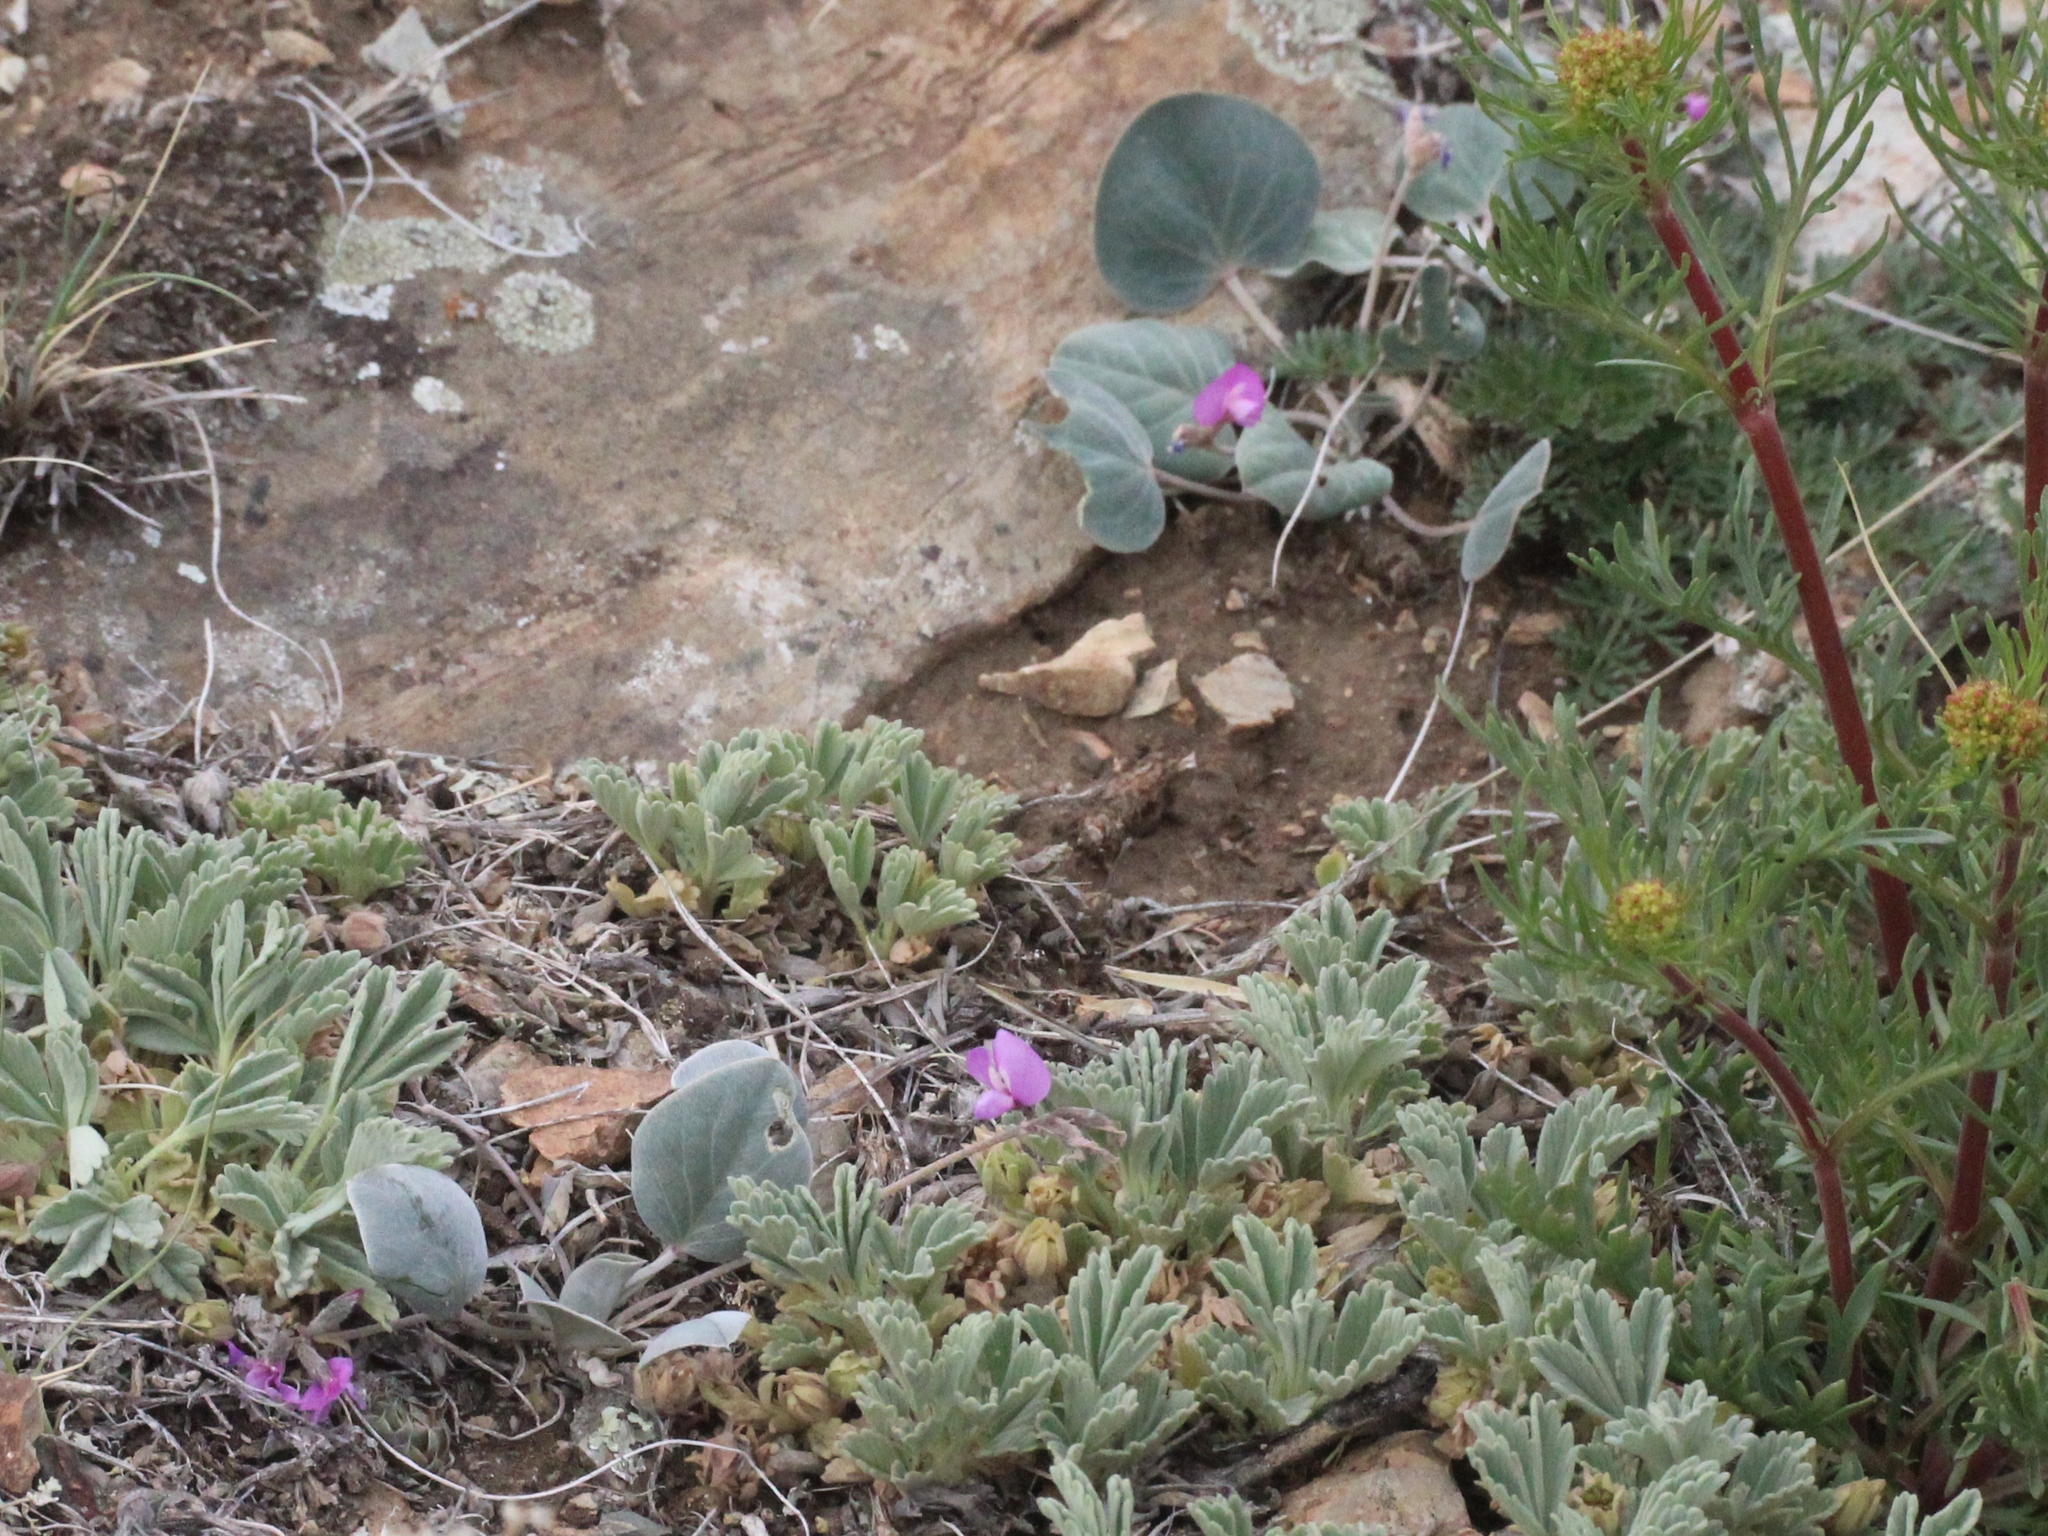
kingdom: Plantae
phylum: Tracheophyta
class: Magnoliopsida
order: Fabales
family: Fabaceae
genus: Gueldenstaedtia
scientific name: Gueldenstaedtia monophylla
